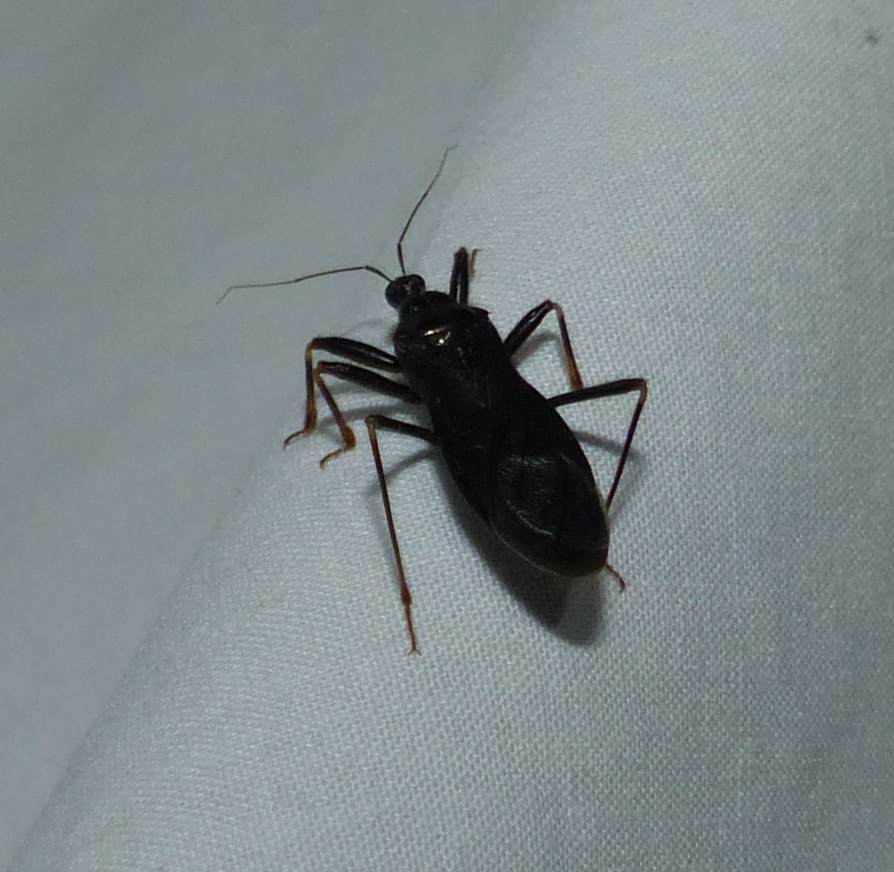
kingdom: Animalia
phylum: Arthropoda
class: Insecta
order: Hemiptera
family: Reduviidae
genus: Reduvius
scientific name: Reduvius personatus
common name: Masked hunter
